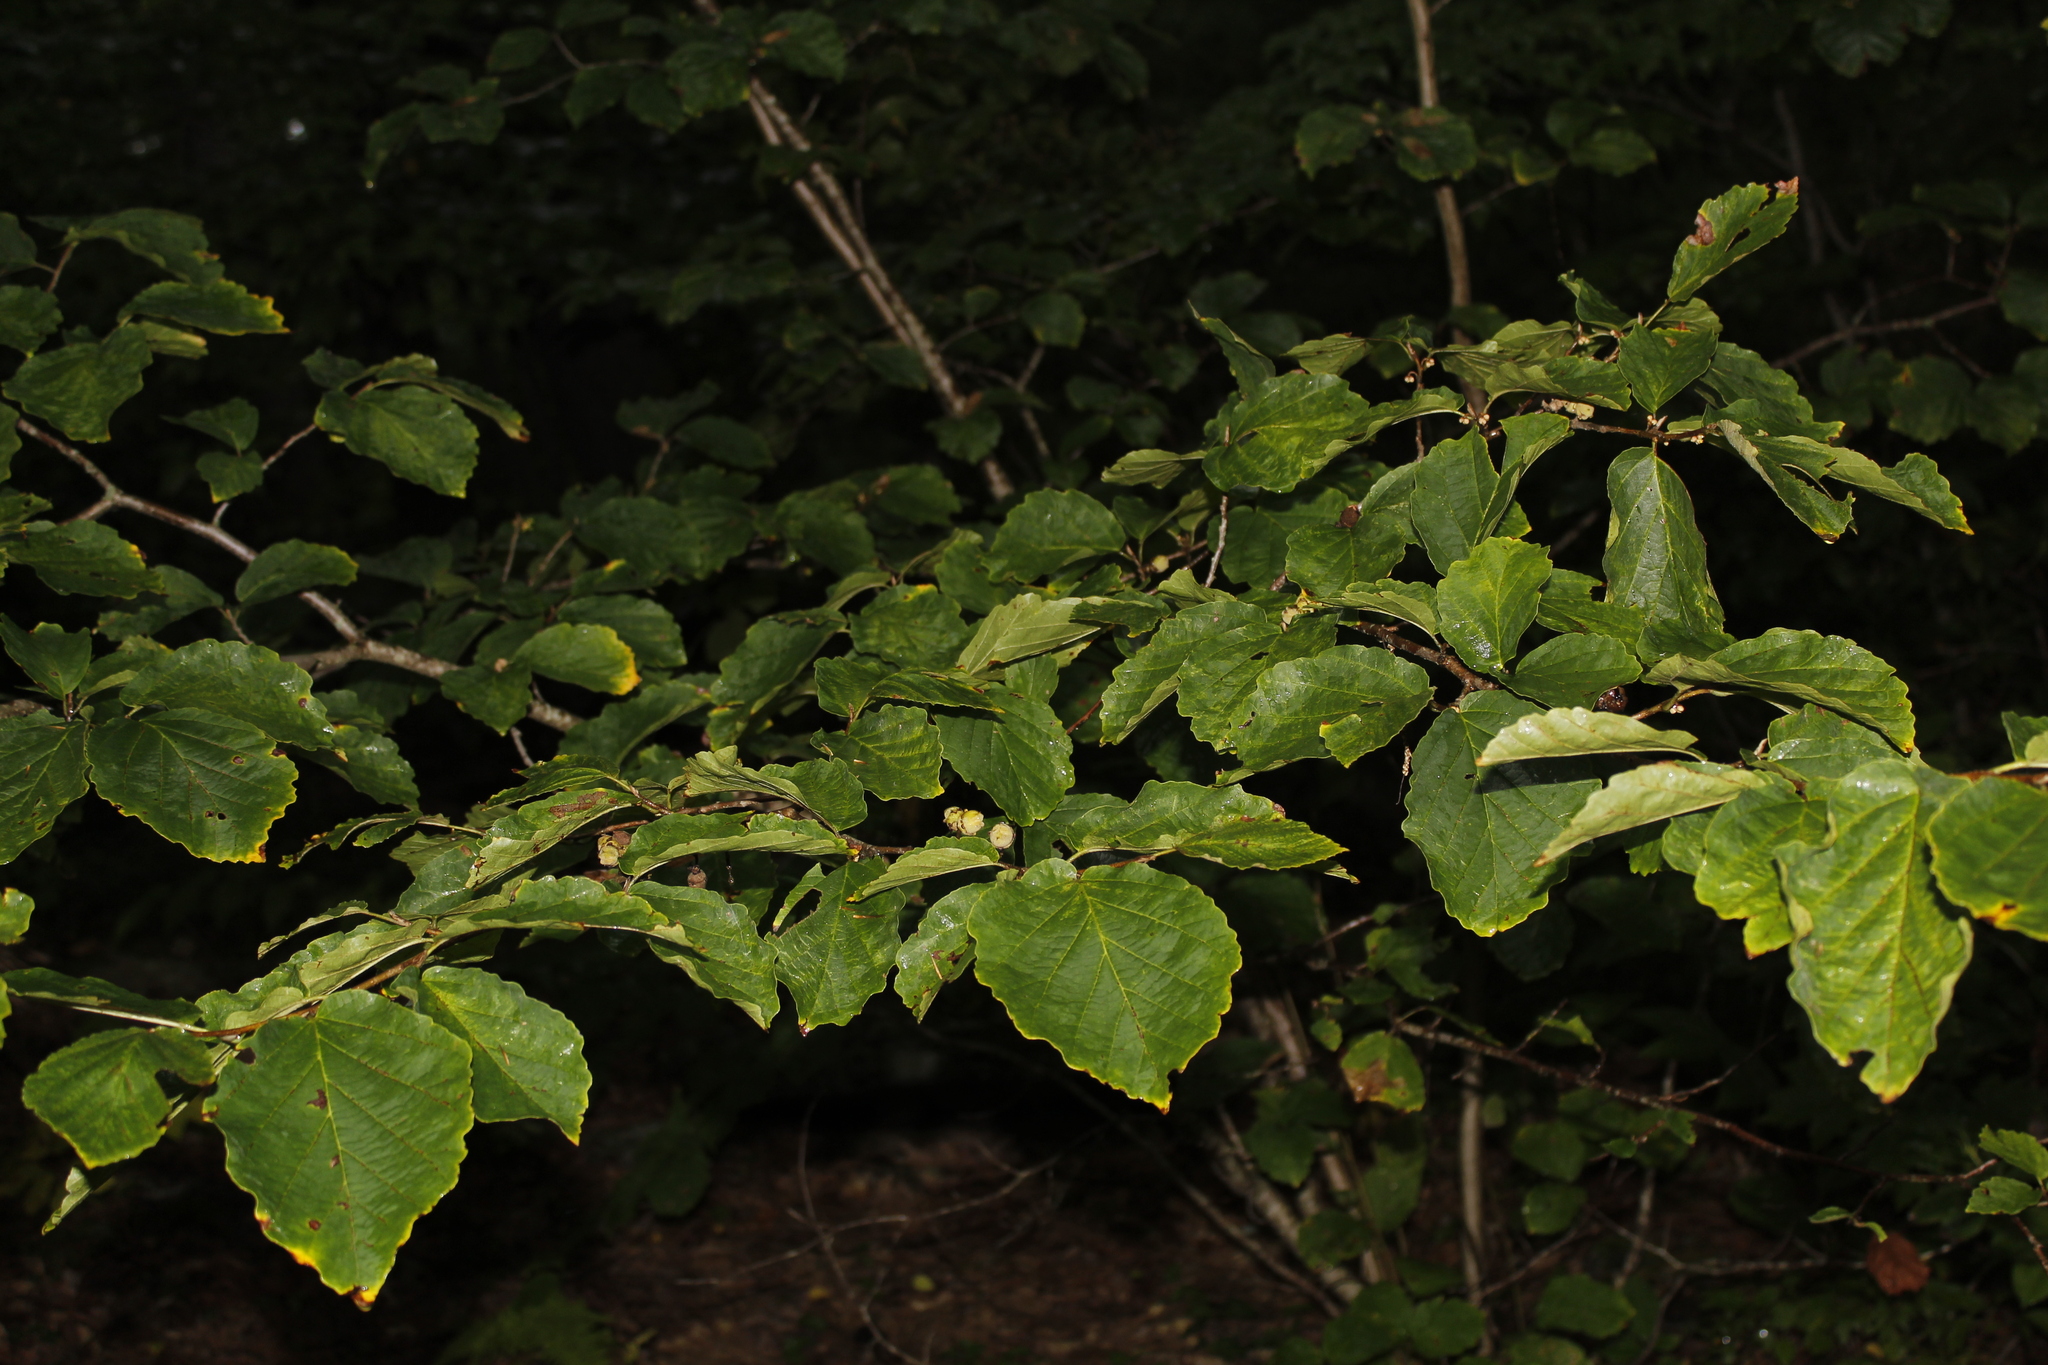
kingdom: Plantae
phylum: Tracheophyta
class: Magnoliopsida
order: Saxifragales
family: Hamamelidaceae
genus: Hamamelis
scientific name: Hamamelis virginiana
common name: Witch-hazel
